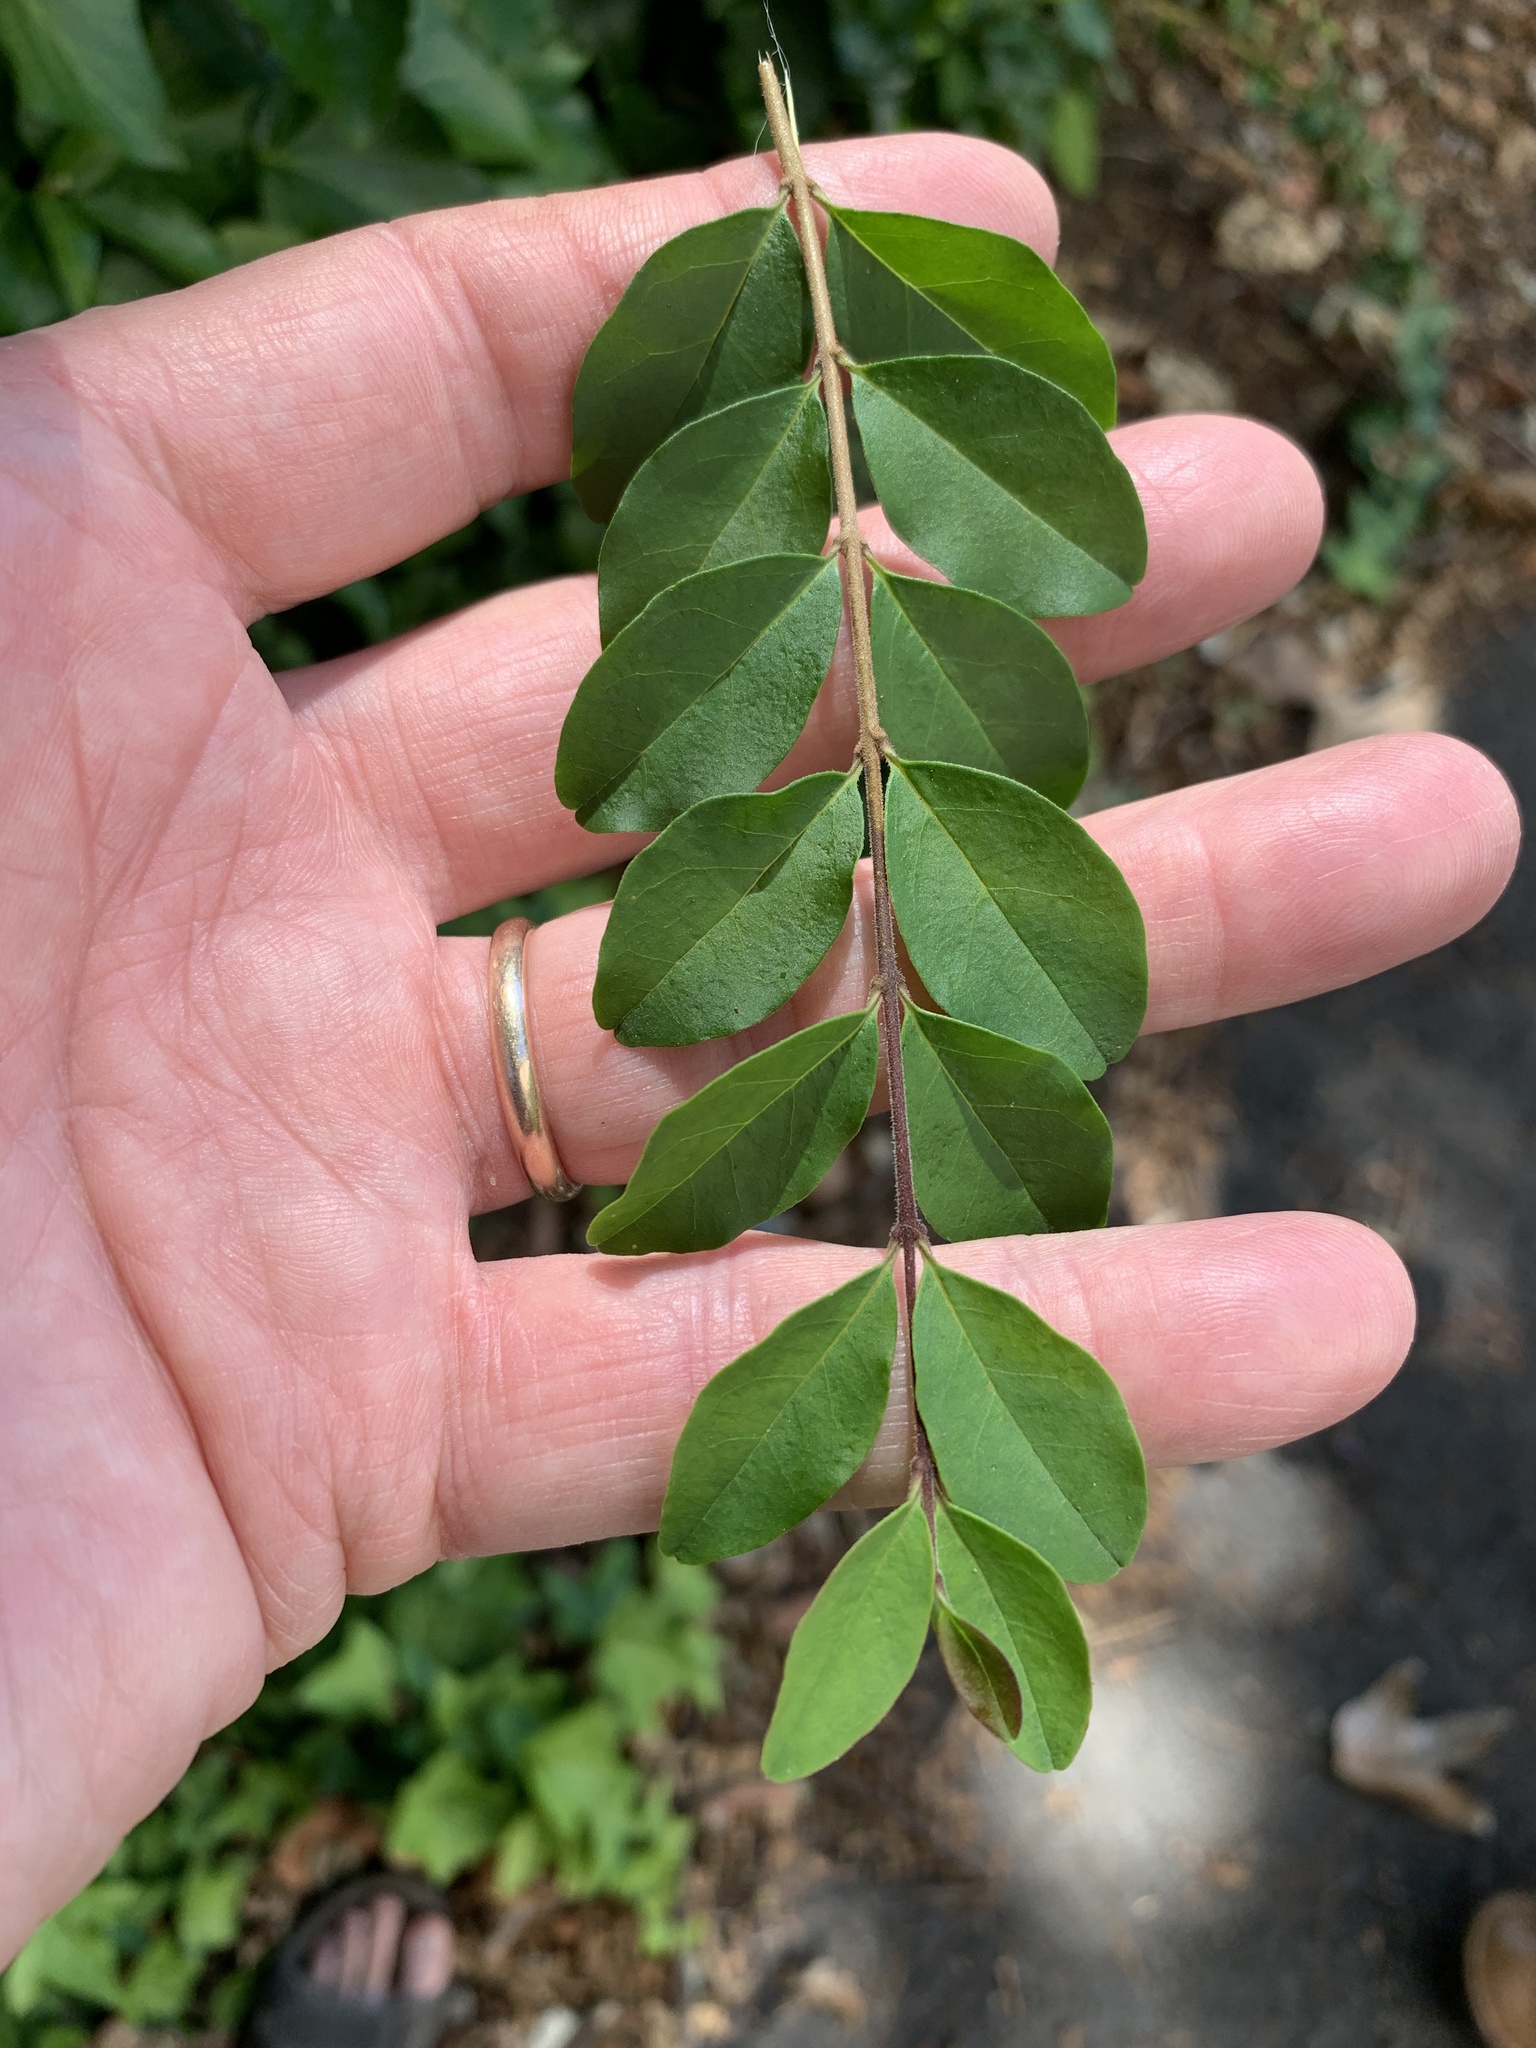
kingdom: Plantae
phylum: Tracheophyta
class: Magnoliopsida
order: Lamiales
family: Oleaceae
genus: Ligustrum
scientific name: Ligustrum sinense
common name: Chinese privet
